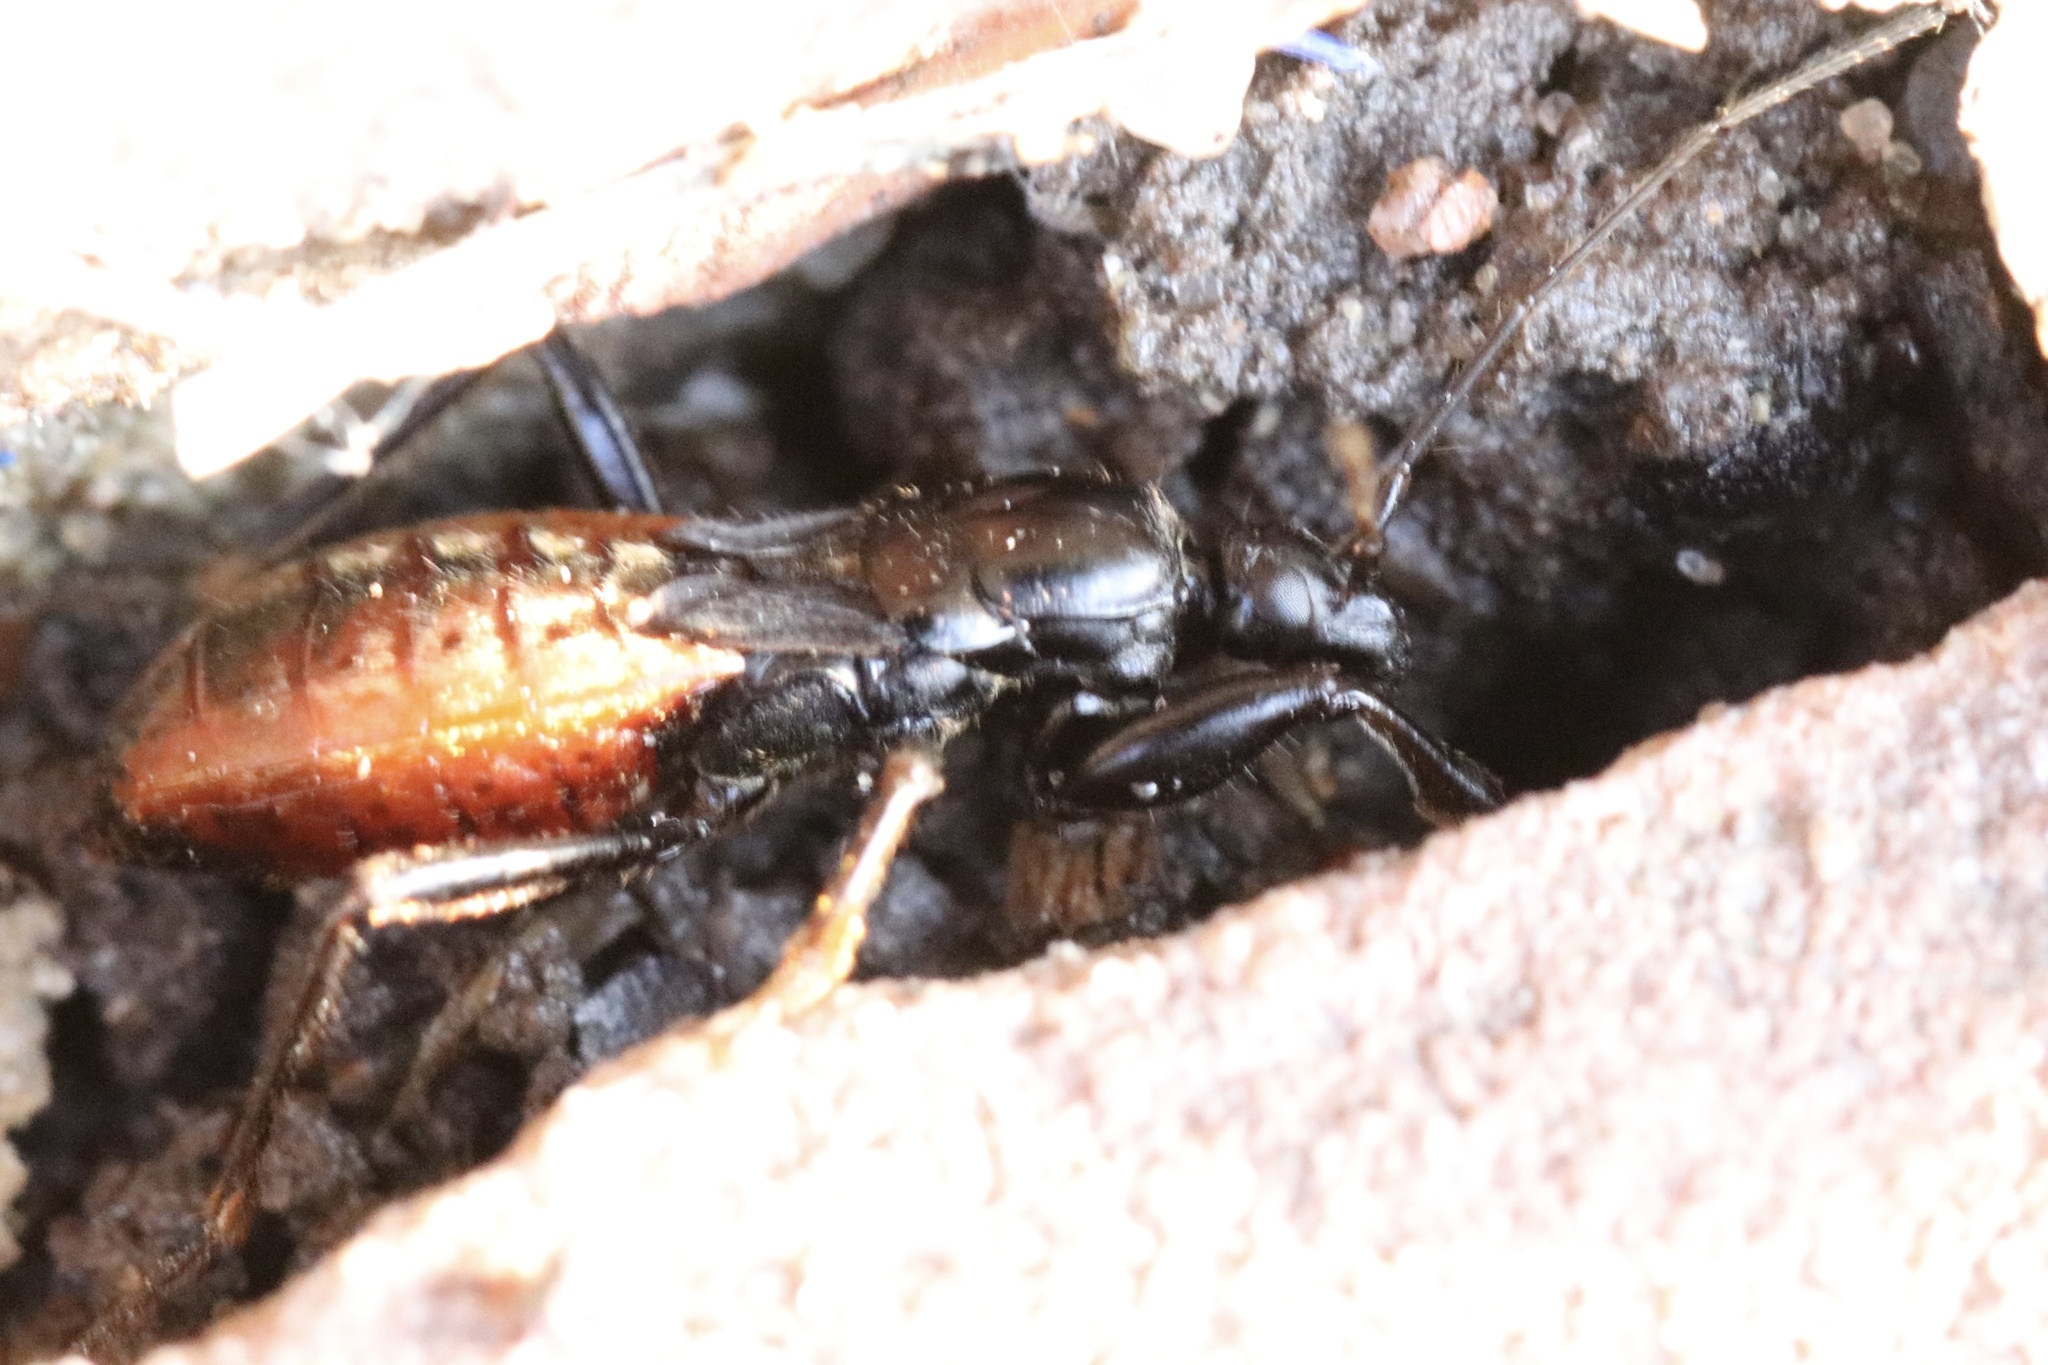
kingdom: Animalia
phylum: Arthropoda
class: Insecta
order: Hemiptera
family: Reduviidae
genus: Melanolestes
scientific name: Melanolestes picipes
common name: Assassin bug
